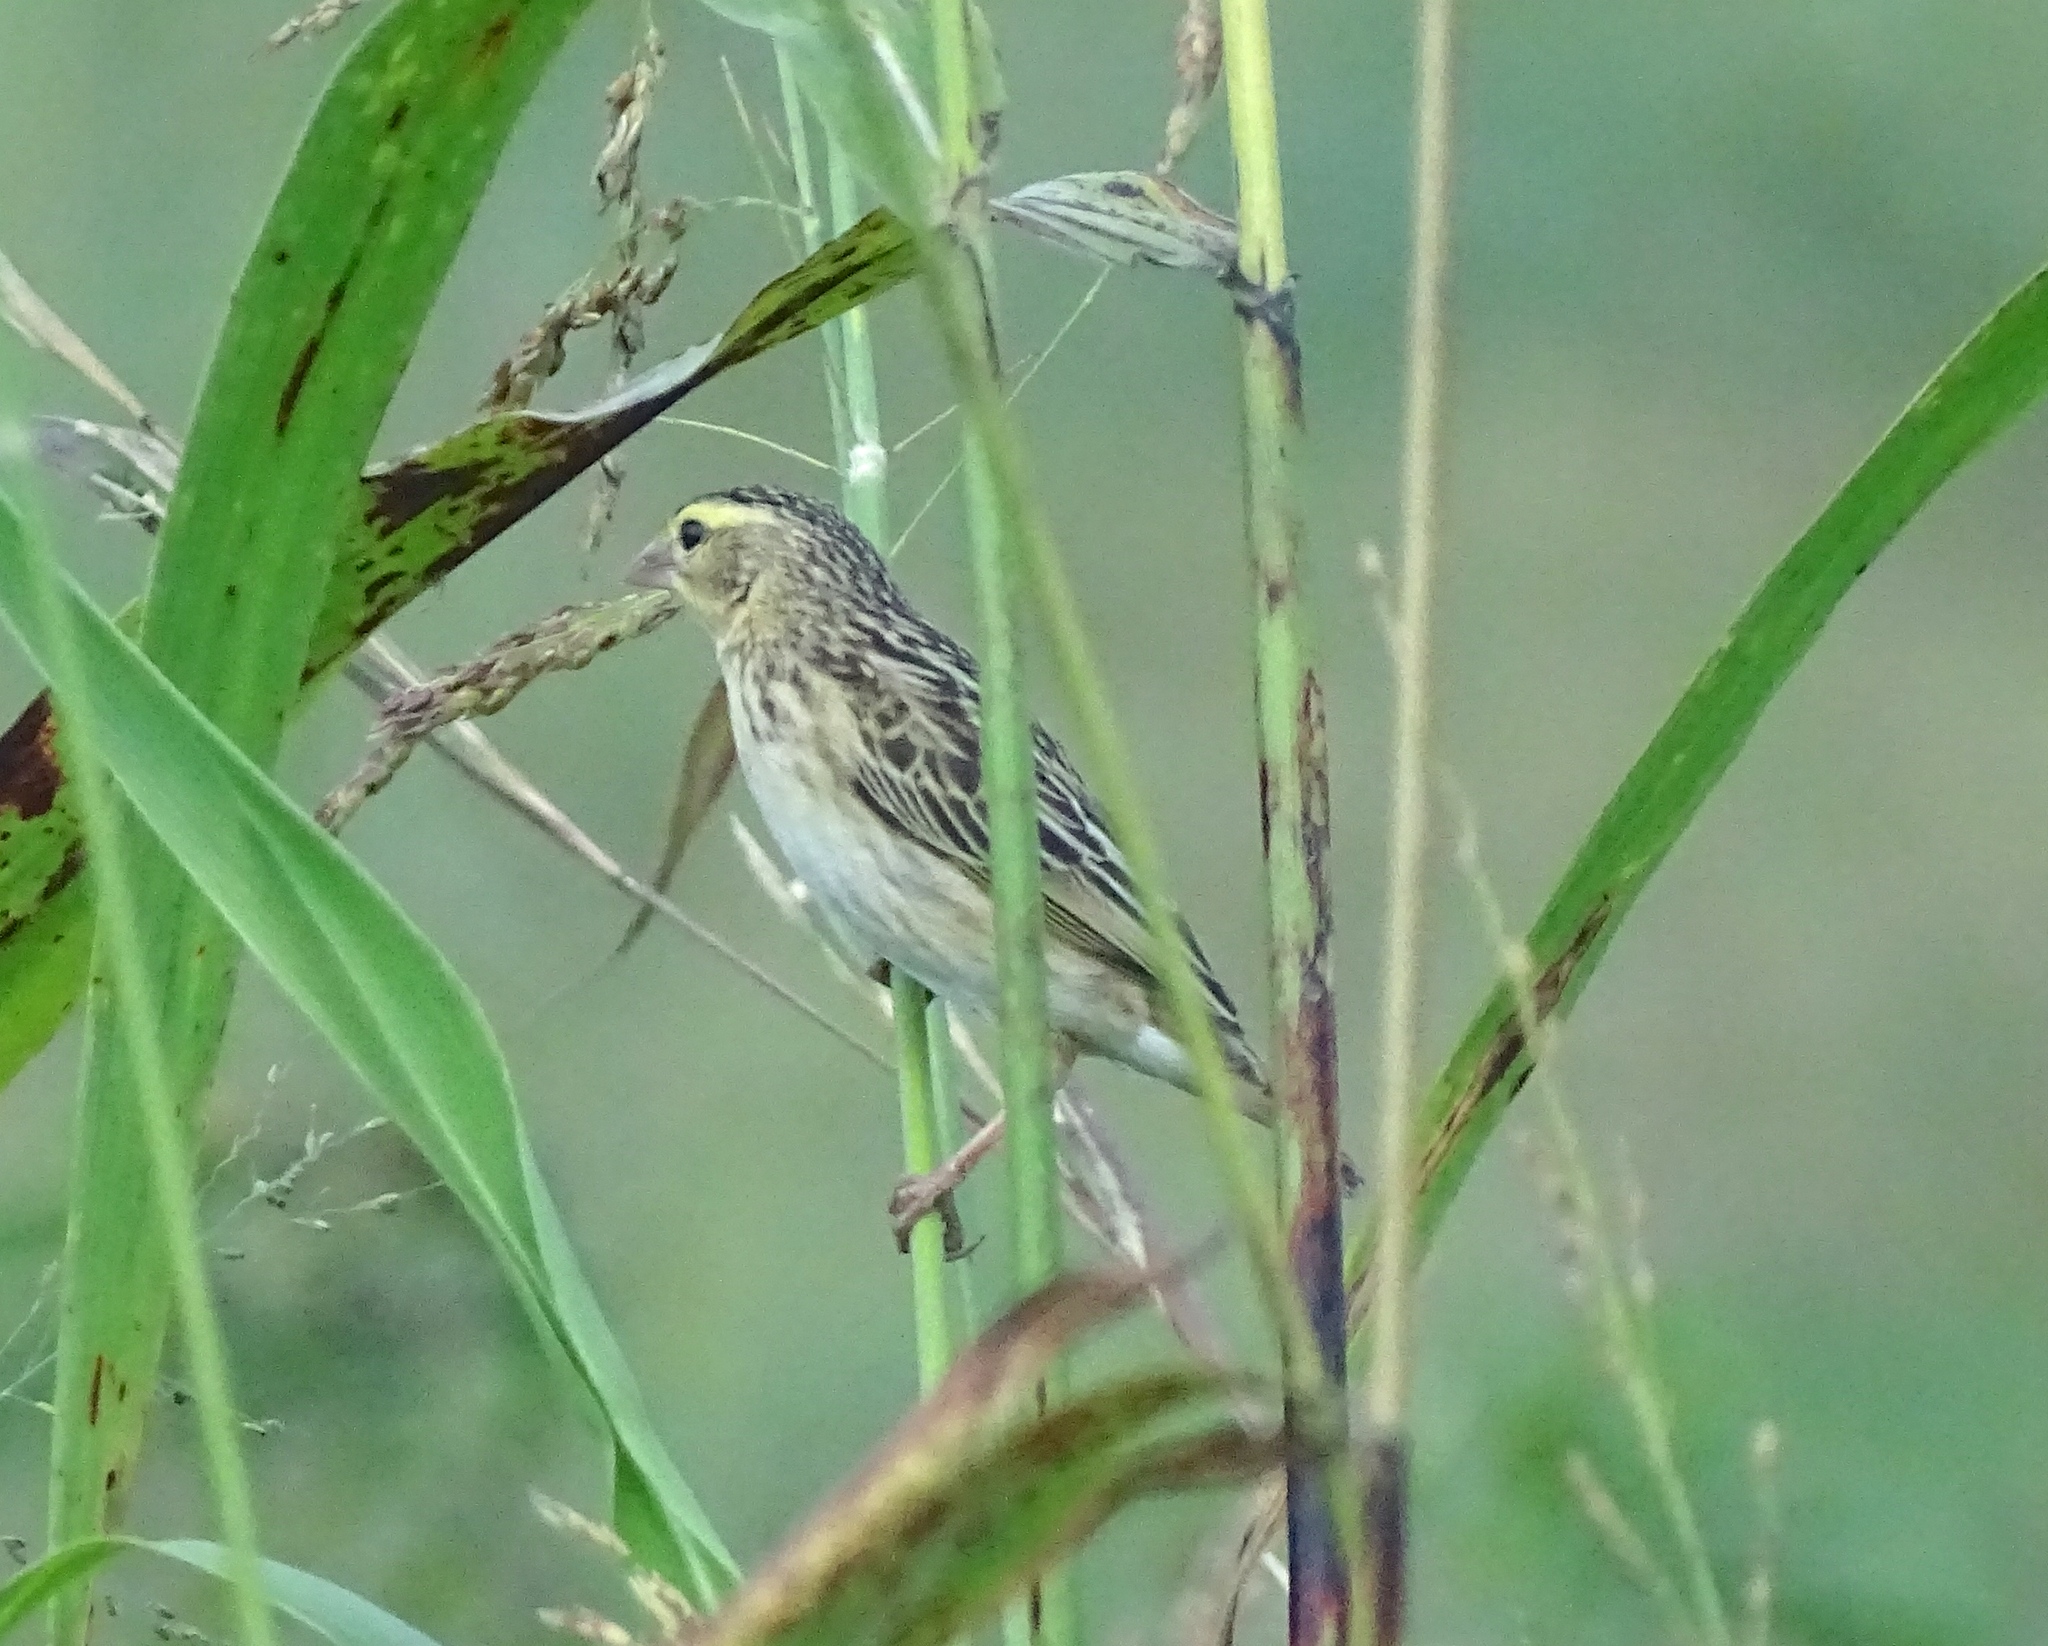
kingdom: Animalia
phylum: Chordata
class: Aves
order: Passeriformes
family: Ploceidae
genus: Euplectes
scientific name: Euplectes franciscanus
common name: Northern red bishop
